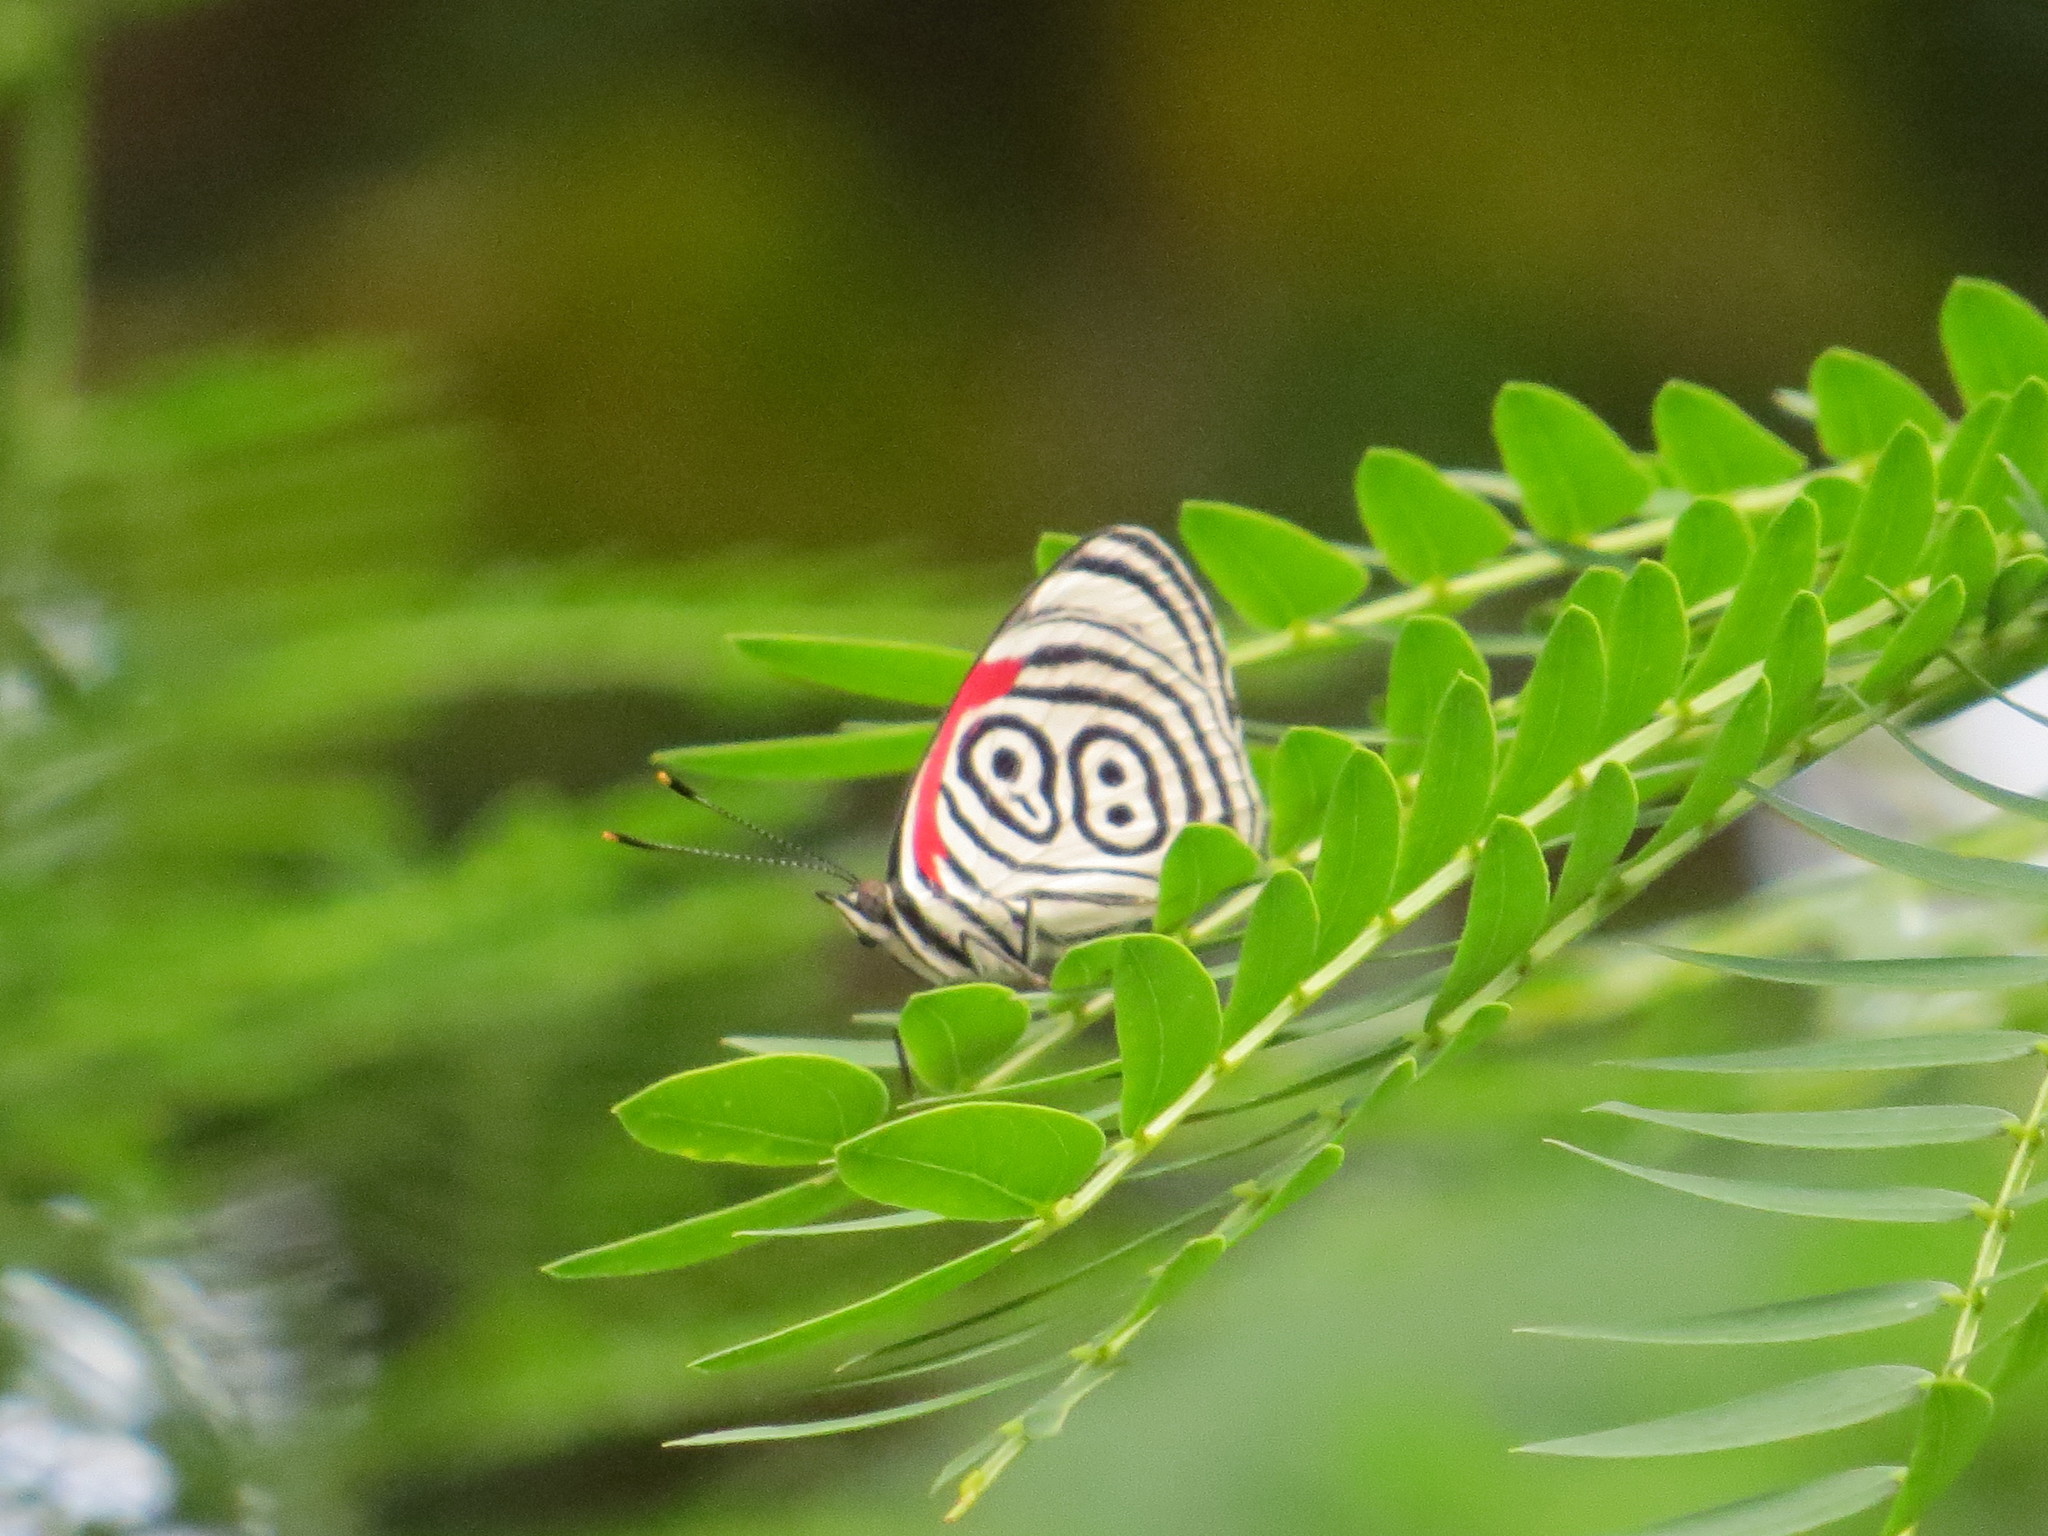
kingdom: Animalia
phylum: Arthropoda
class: Insecta
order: Lepidoptera
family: Nymphalidae
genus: Diaethria
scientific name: Diaethria clymena
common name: Widespread eighty-eight
